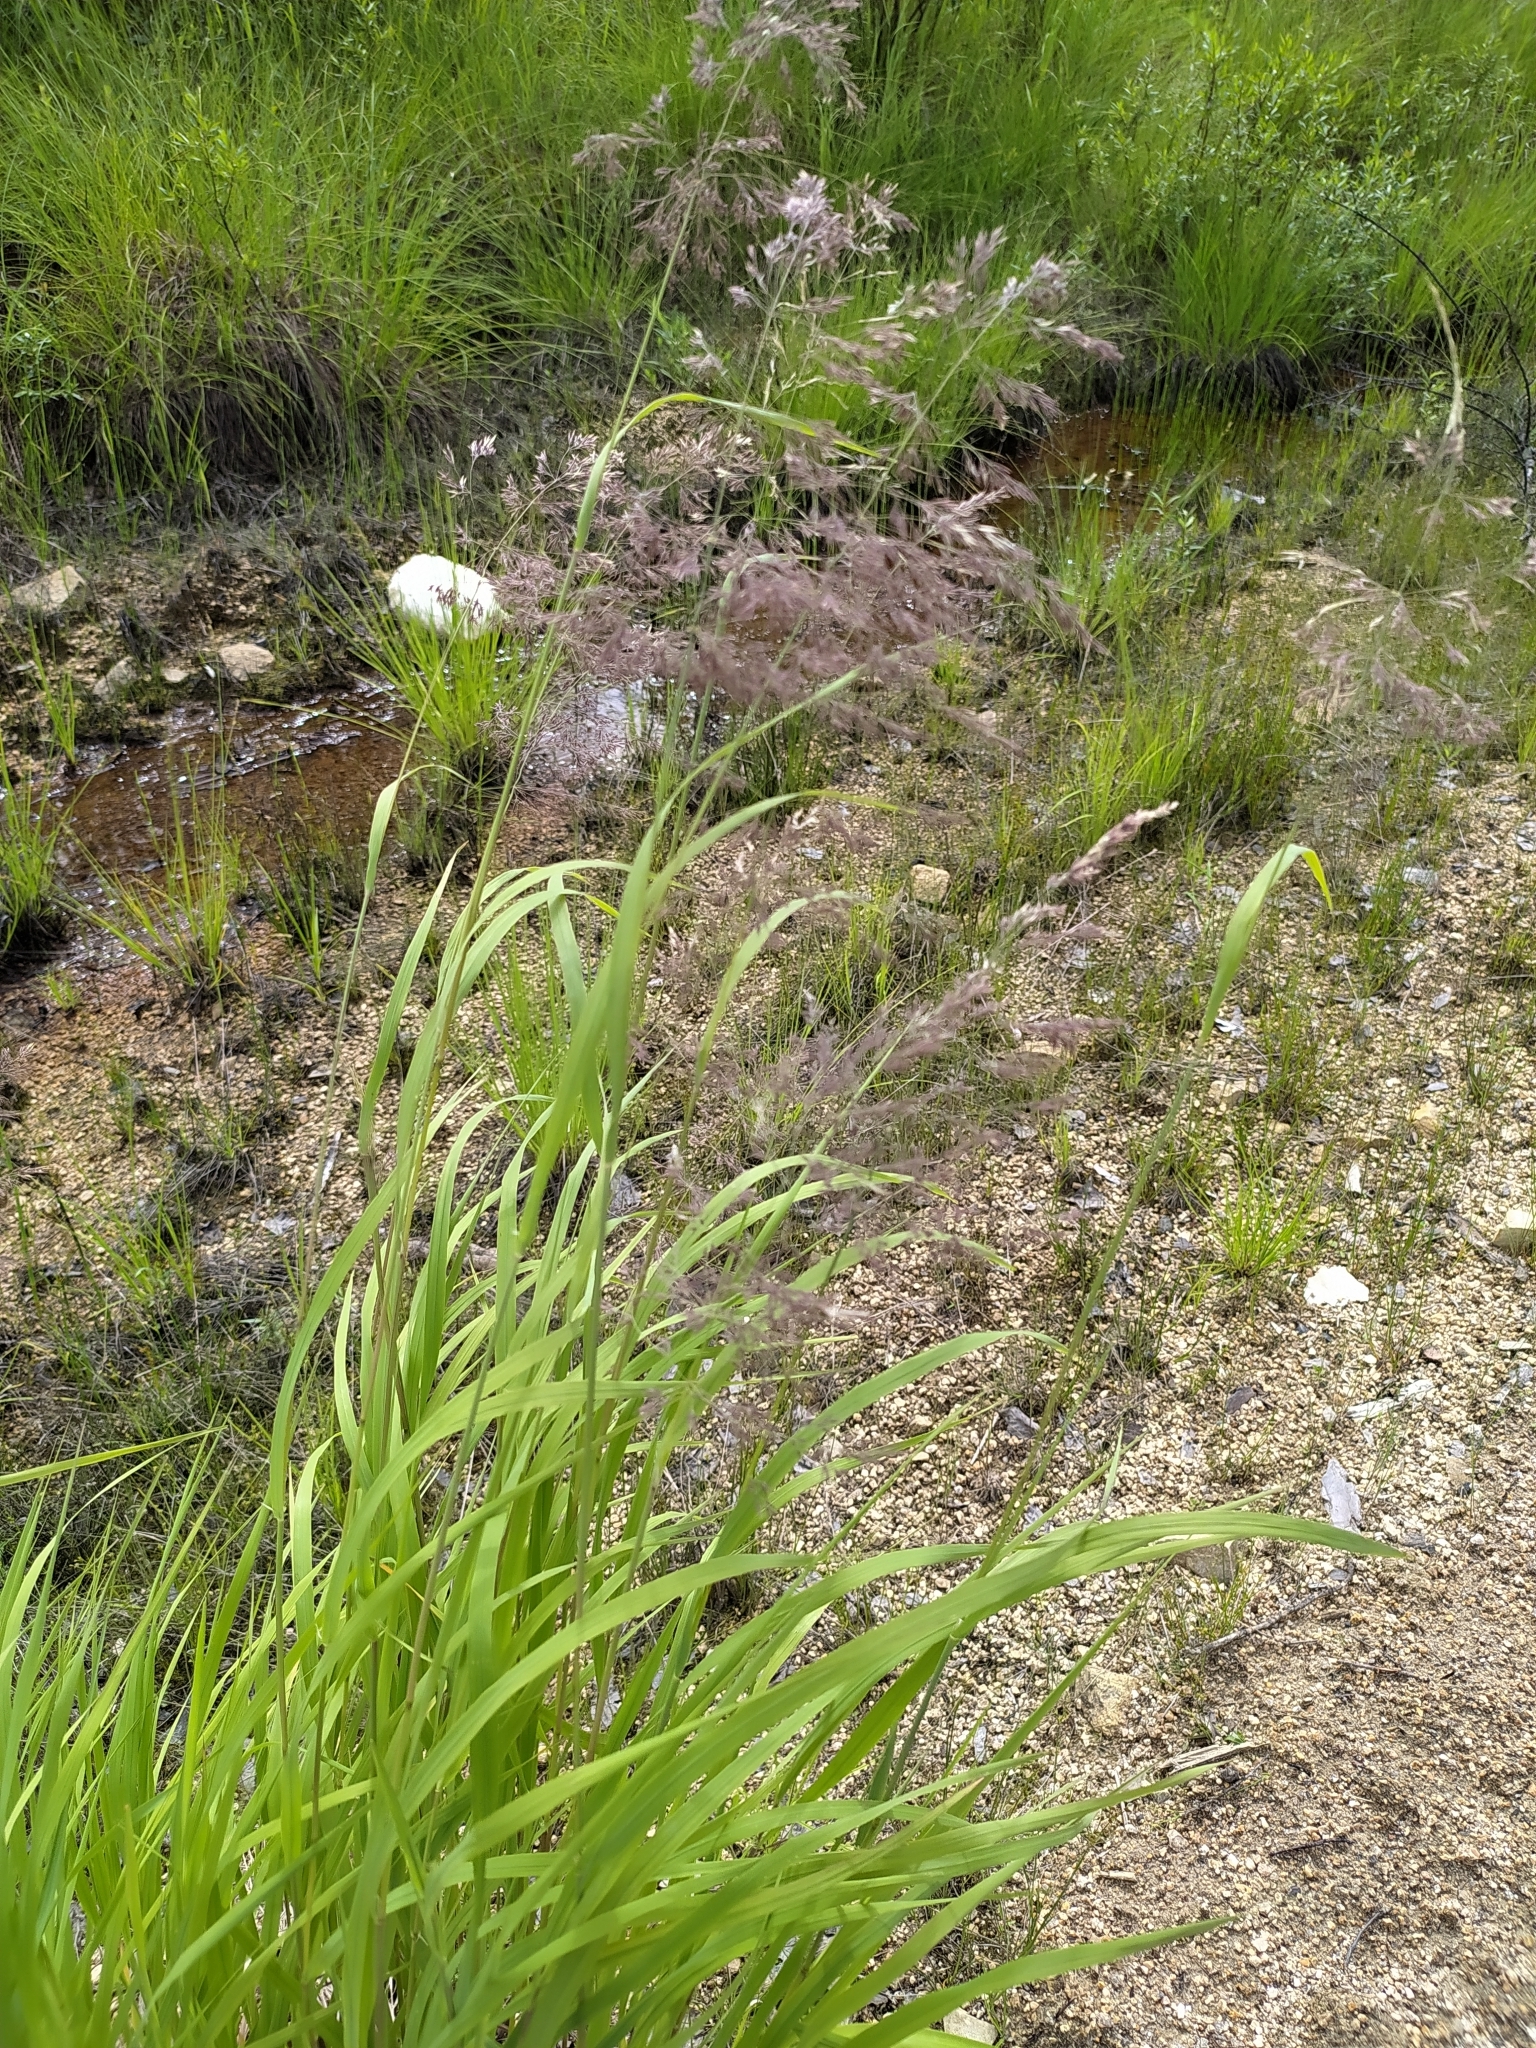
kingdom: Plantae
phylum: Tracheophyta
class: Liliopsida
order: Poales
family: Poaceae
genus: Calamagrostis
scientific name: Calamagrostis purpurea
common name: Scandinavian small-reed
